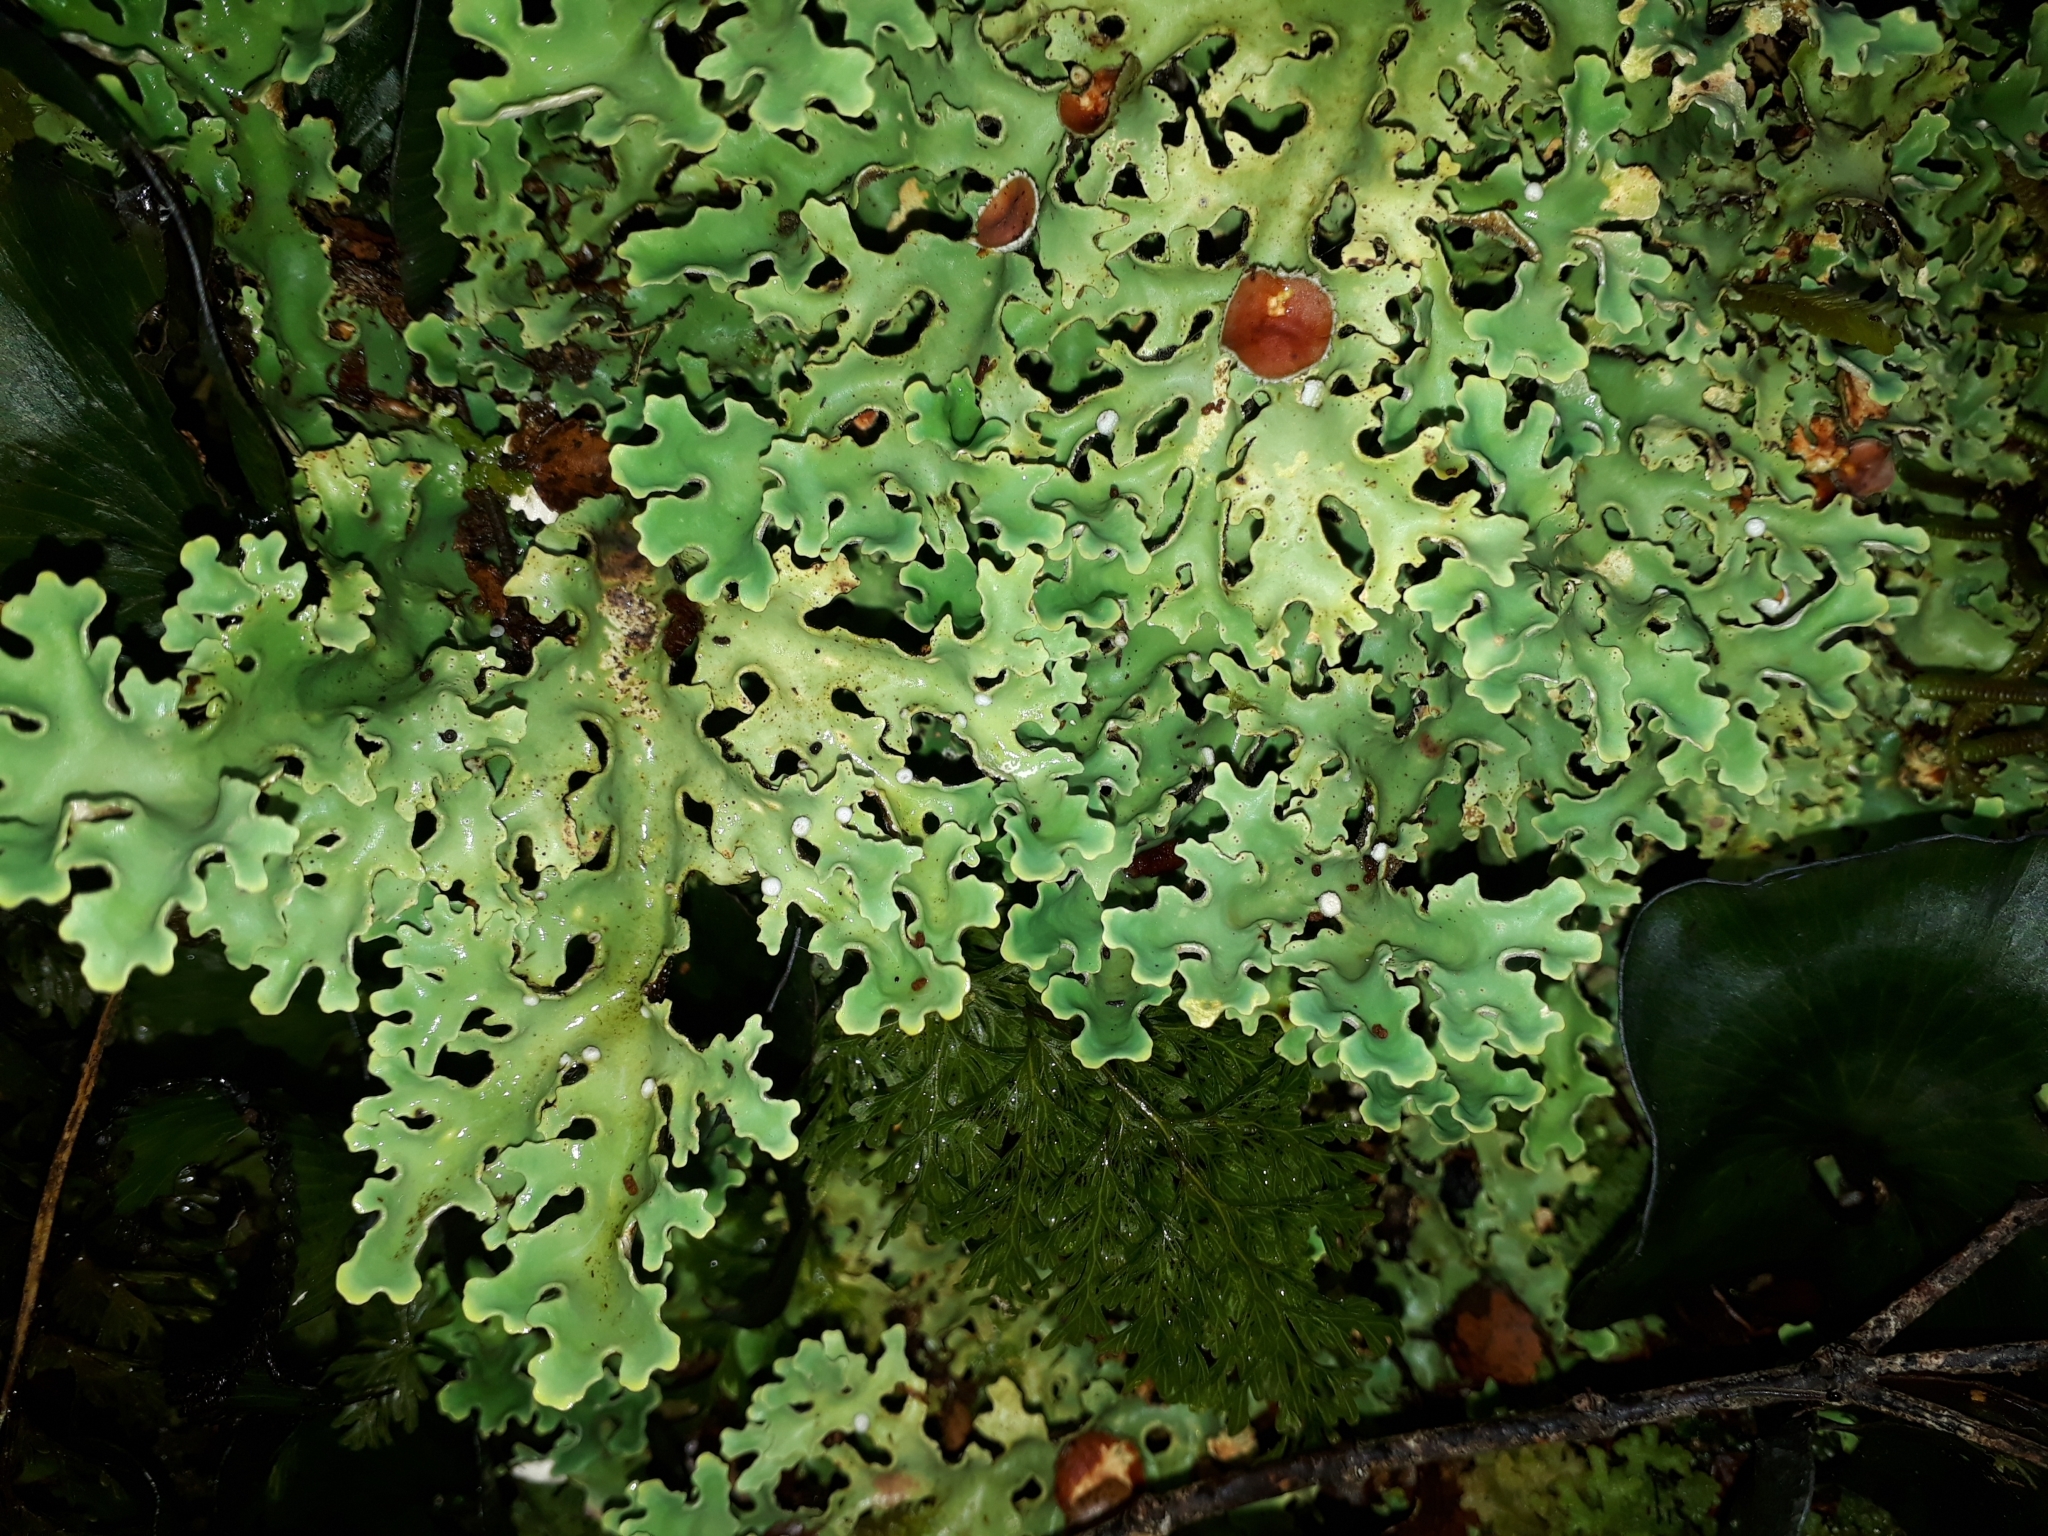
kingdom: Fungi
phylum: Ascomycota
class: Lecanoromycetes
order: Peltigerales
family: Lobariaceae
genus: Pseudocyphellaria
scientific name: Pseudocyphellaria homeophylla
